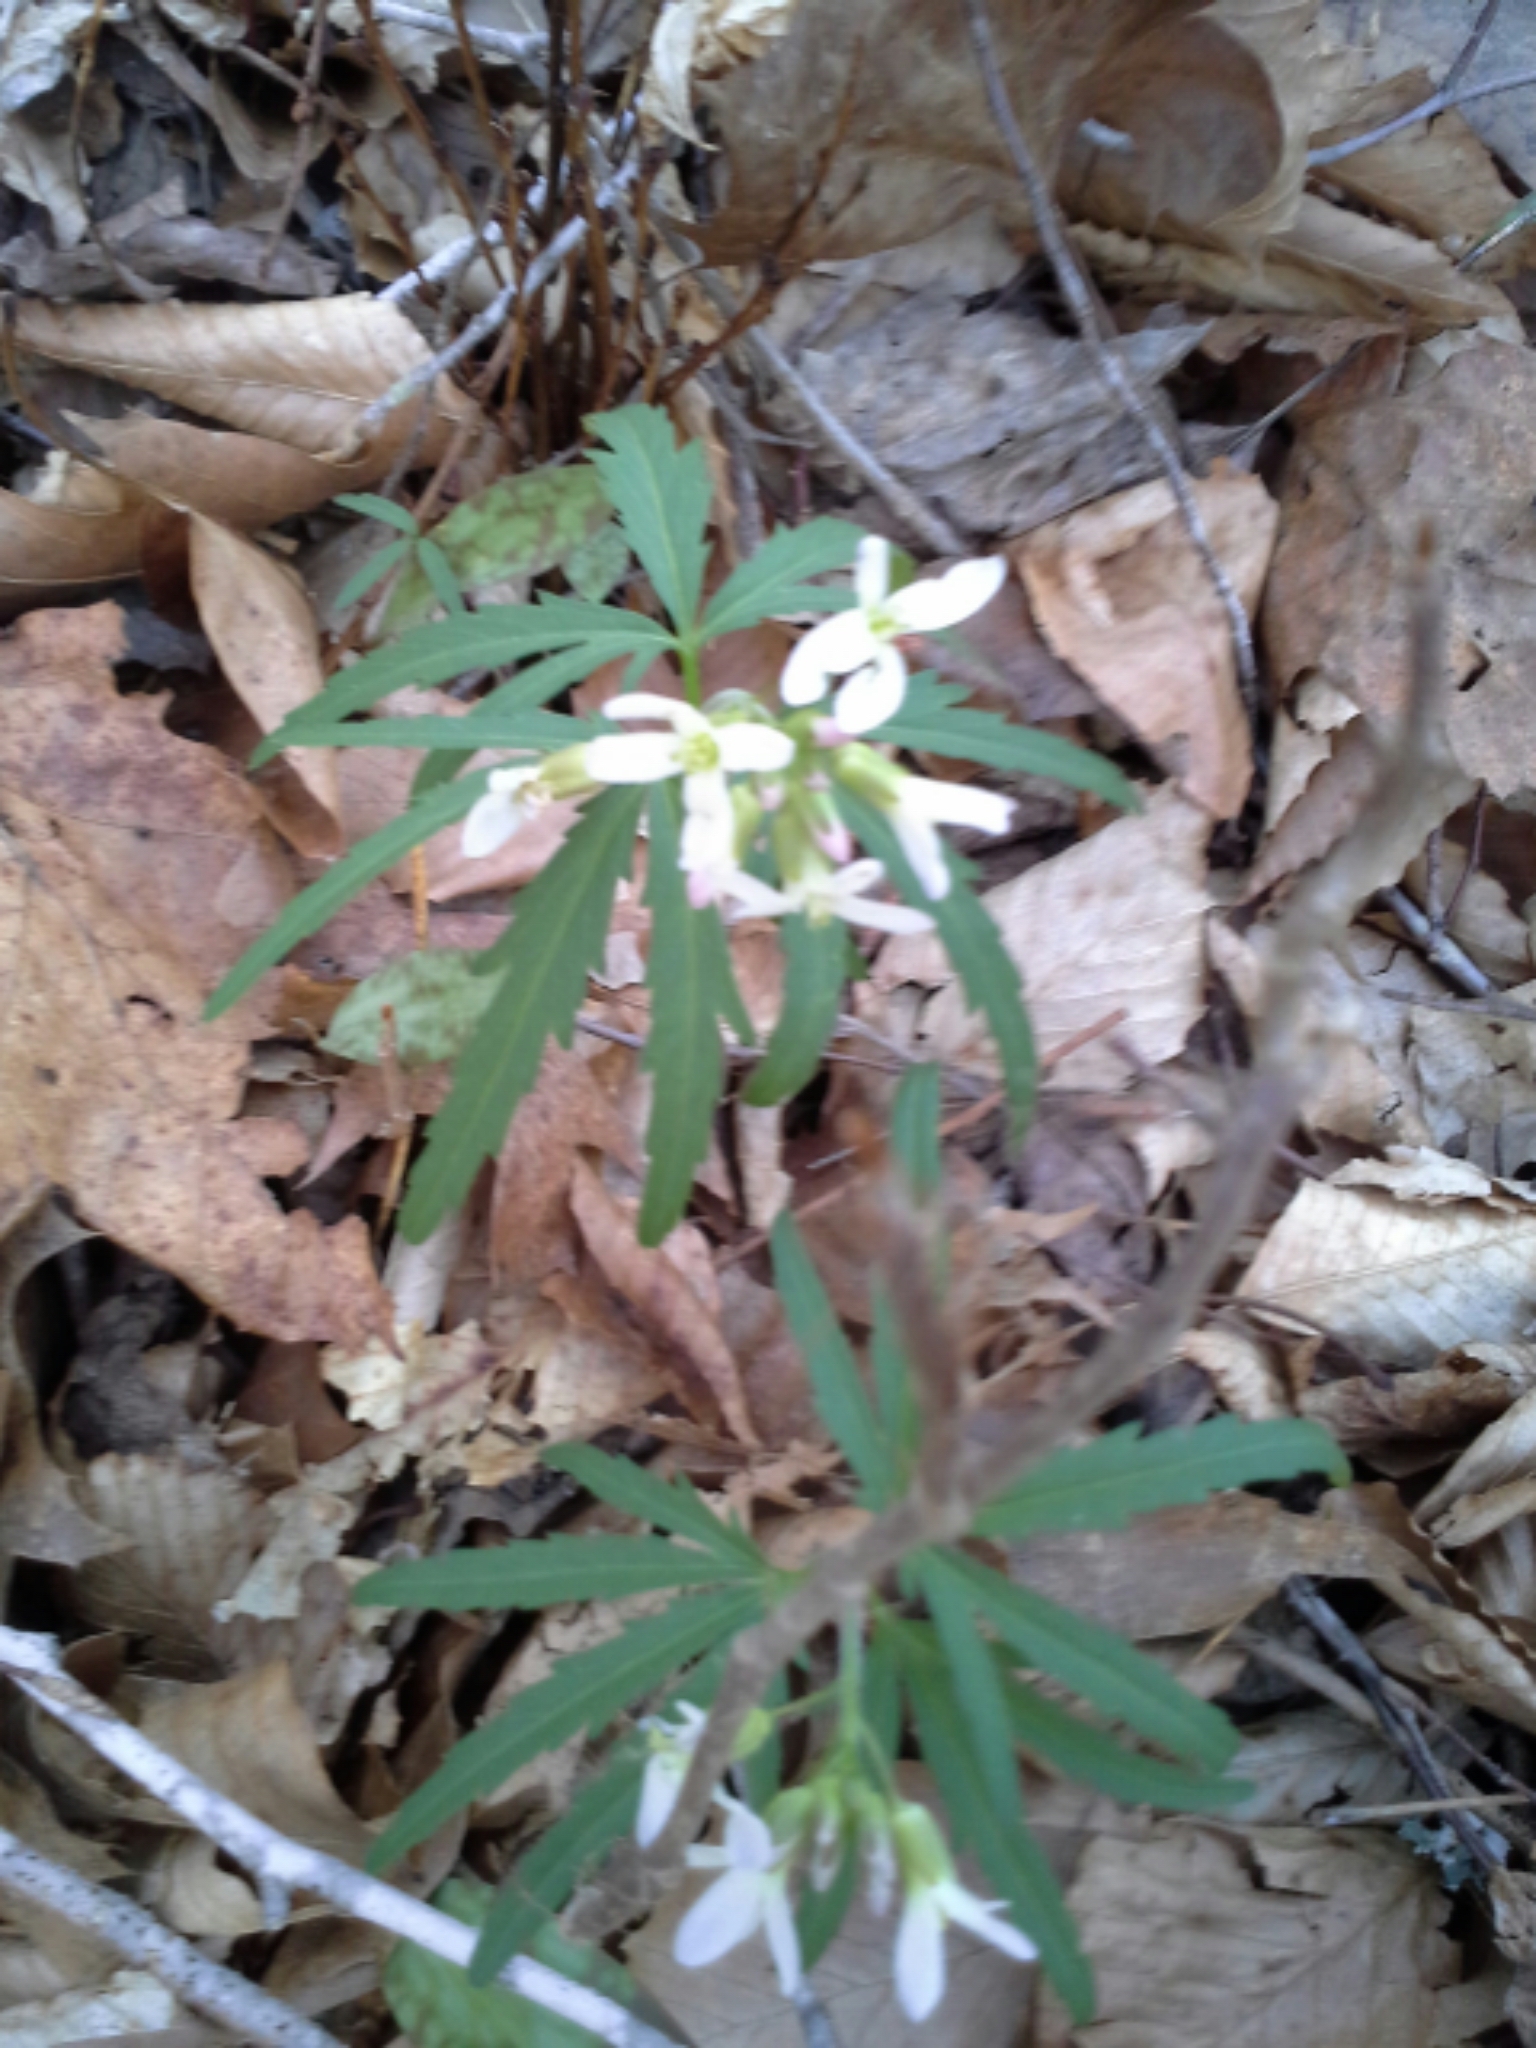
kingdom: Plantae
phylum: Tracheophyta
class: Magnoliopsida
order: Brassicales
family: Brassicaceae
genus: Cardamine
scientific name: Cardamine concatenata
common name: Cut-leaf toothcup
